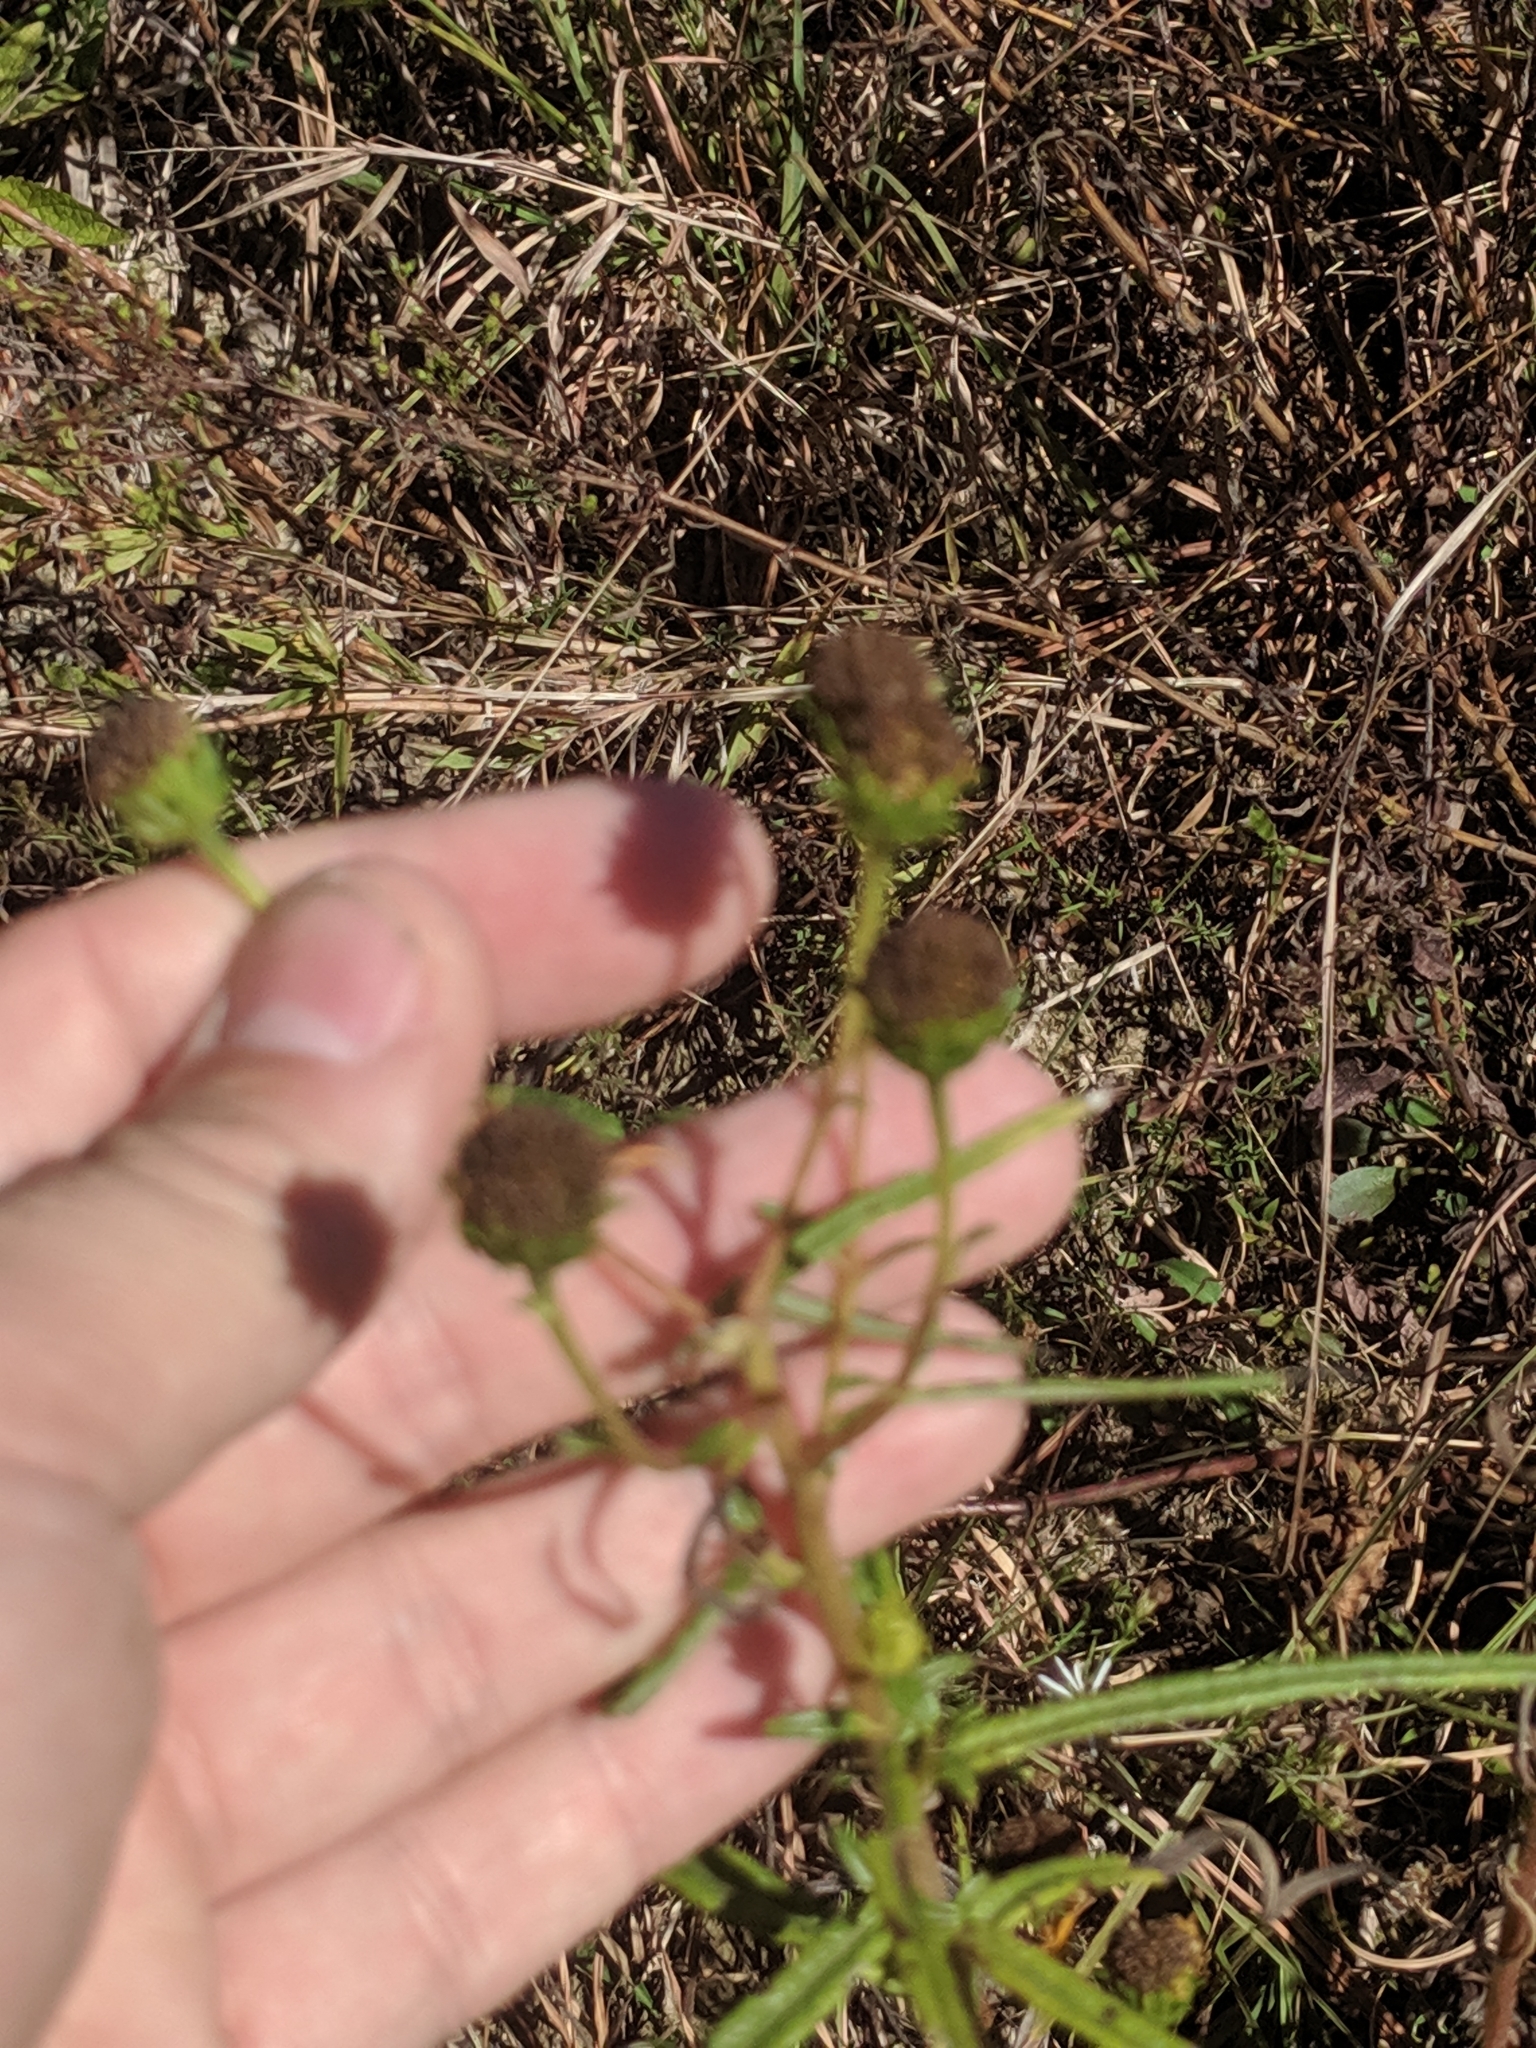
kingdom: Plantae
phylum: Tracheophyta
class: Magnoliopsida
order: Asterales
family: Asteraceae
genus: Helianthus
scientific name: Helianthus angustifolius
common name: Swamp sunflower
